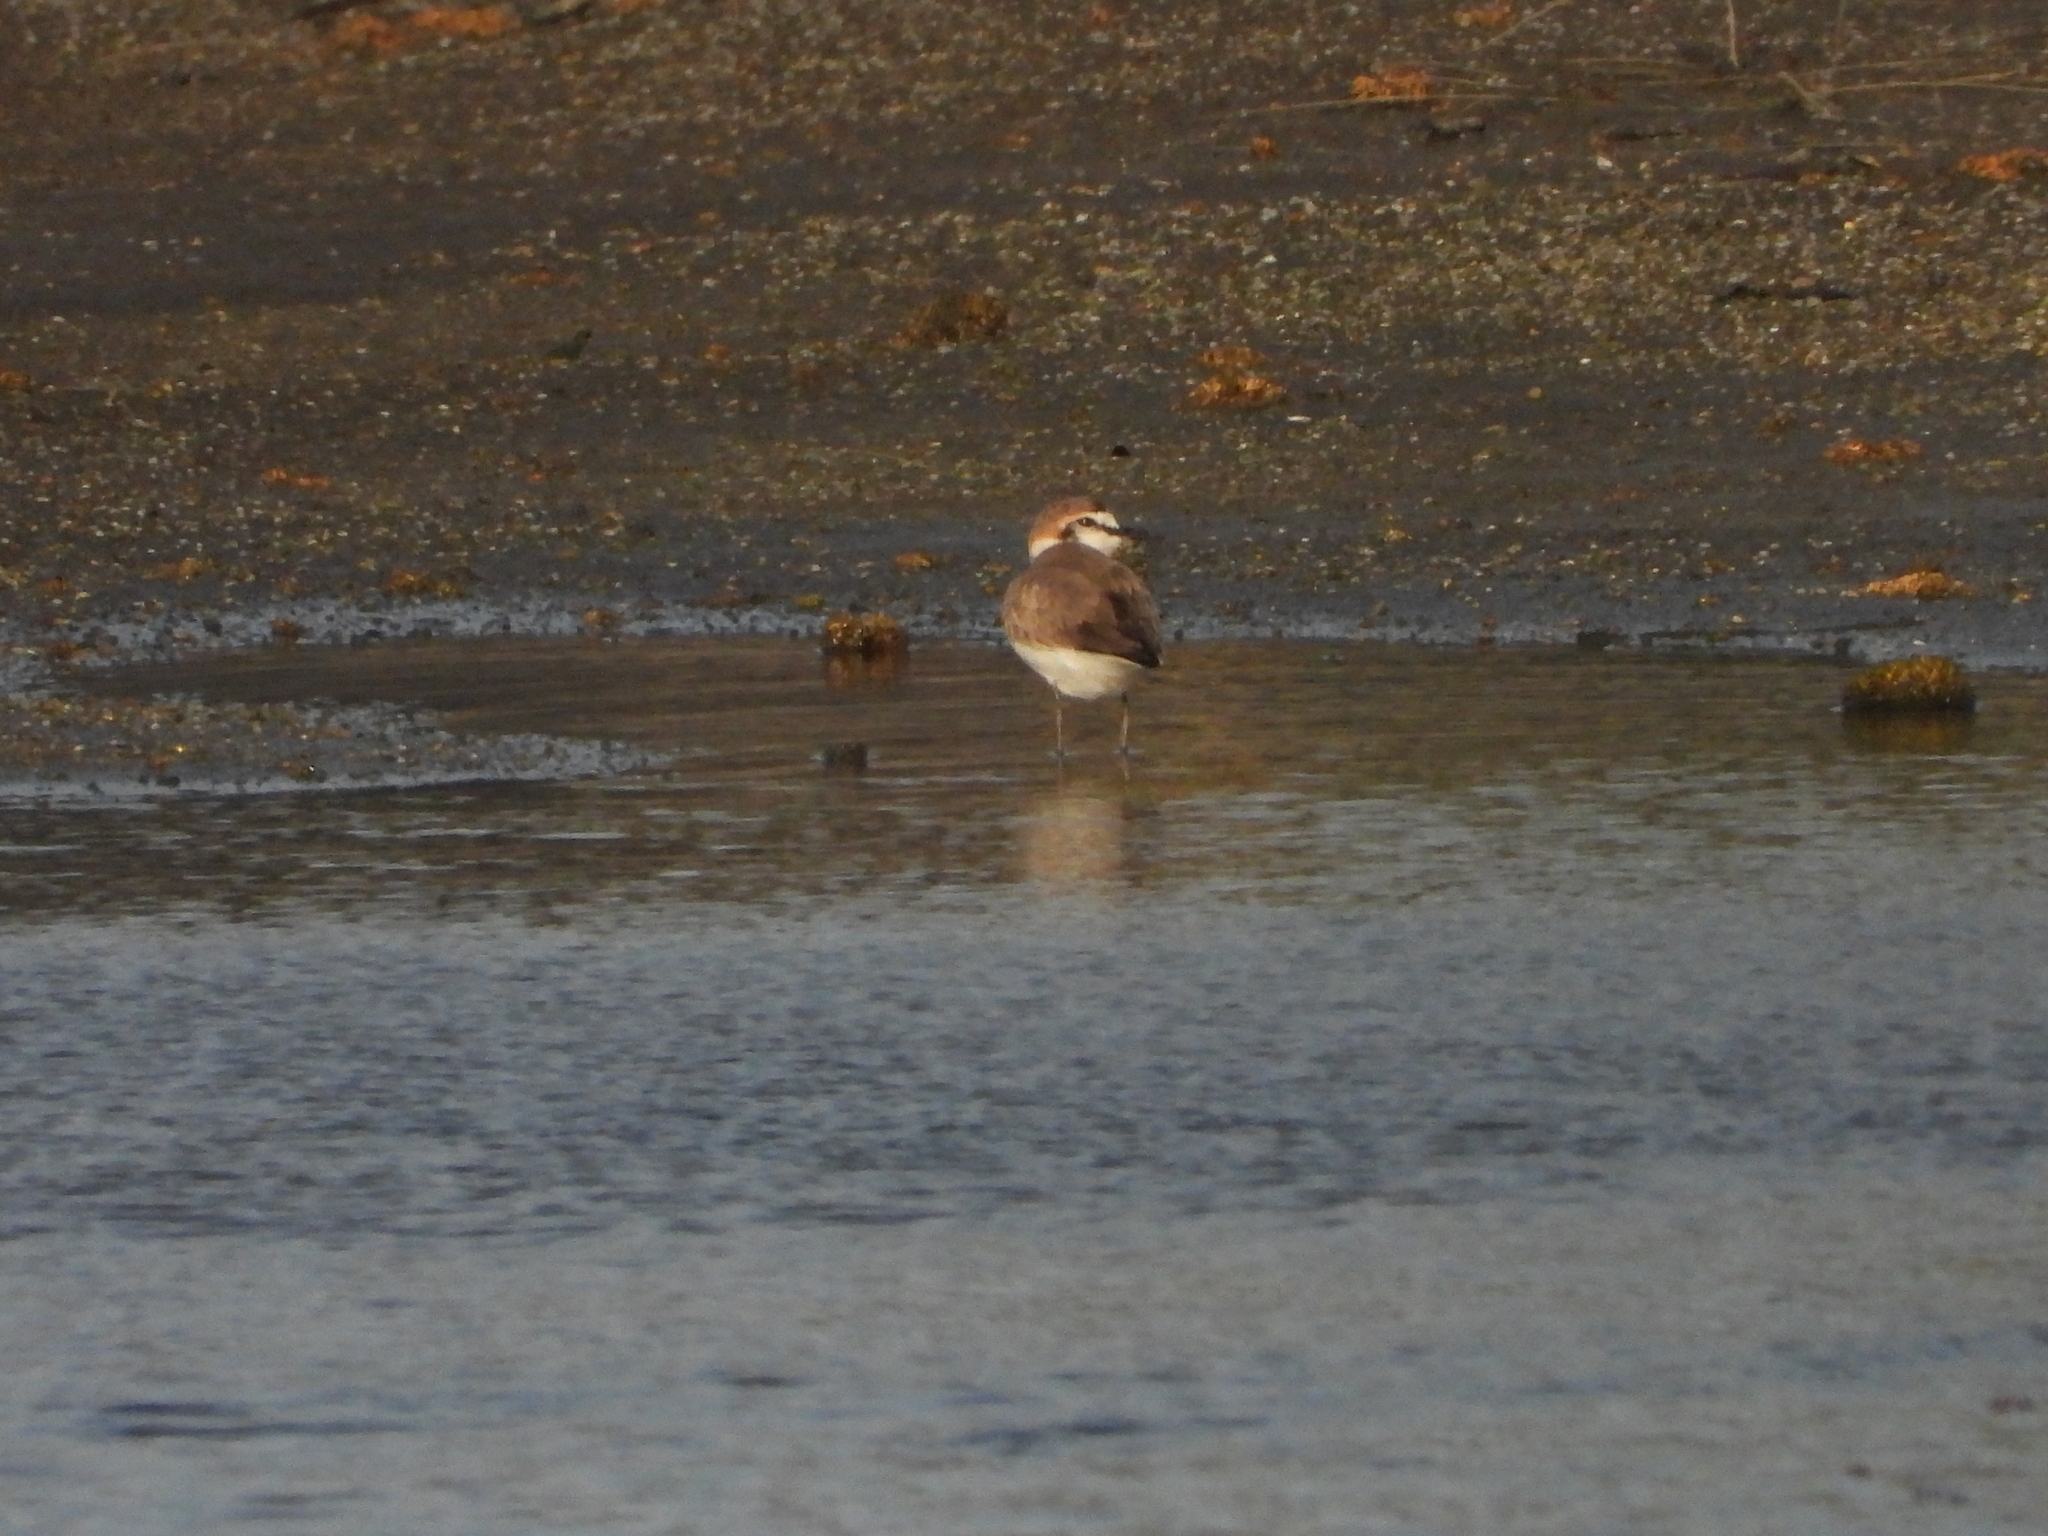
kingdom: Animalia
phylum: Chordata
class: Aves
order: Charadriiformes
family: Charadriidae
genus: Charadrius
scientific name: Charadrius alexandrinus
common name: Kentish plover
